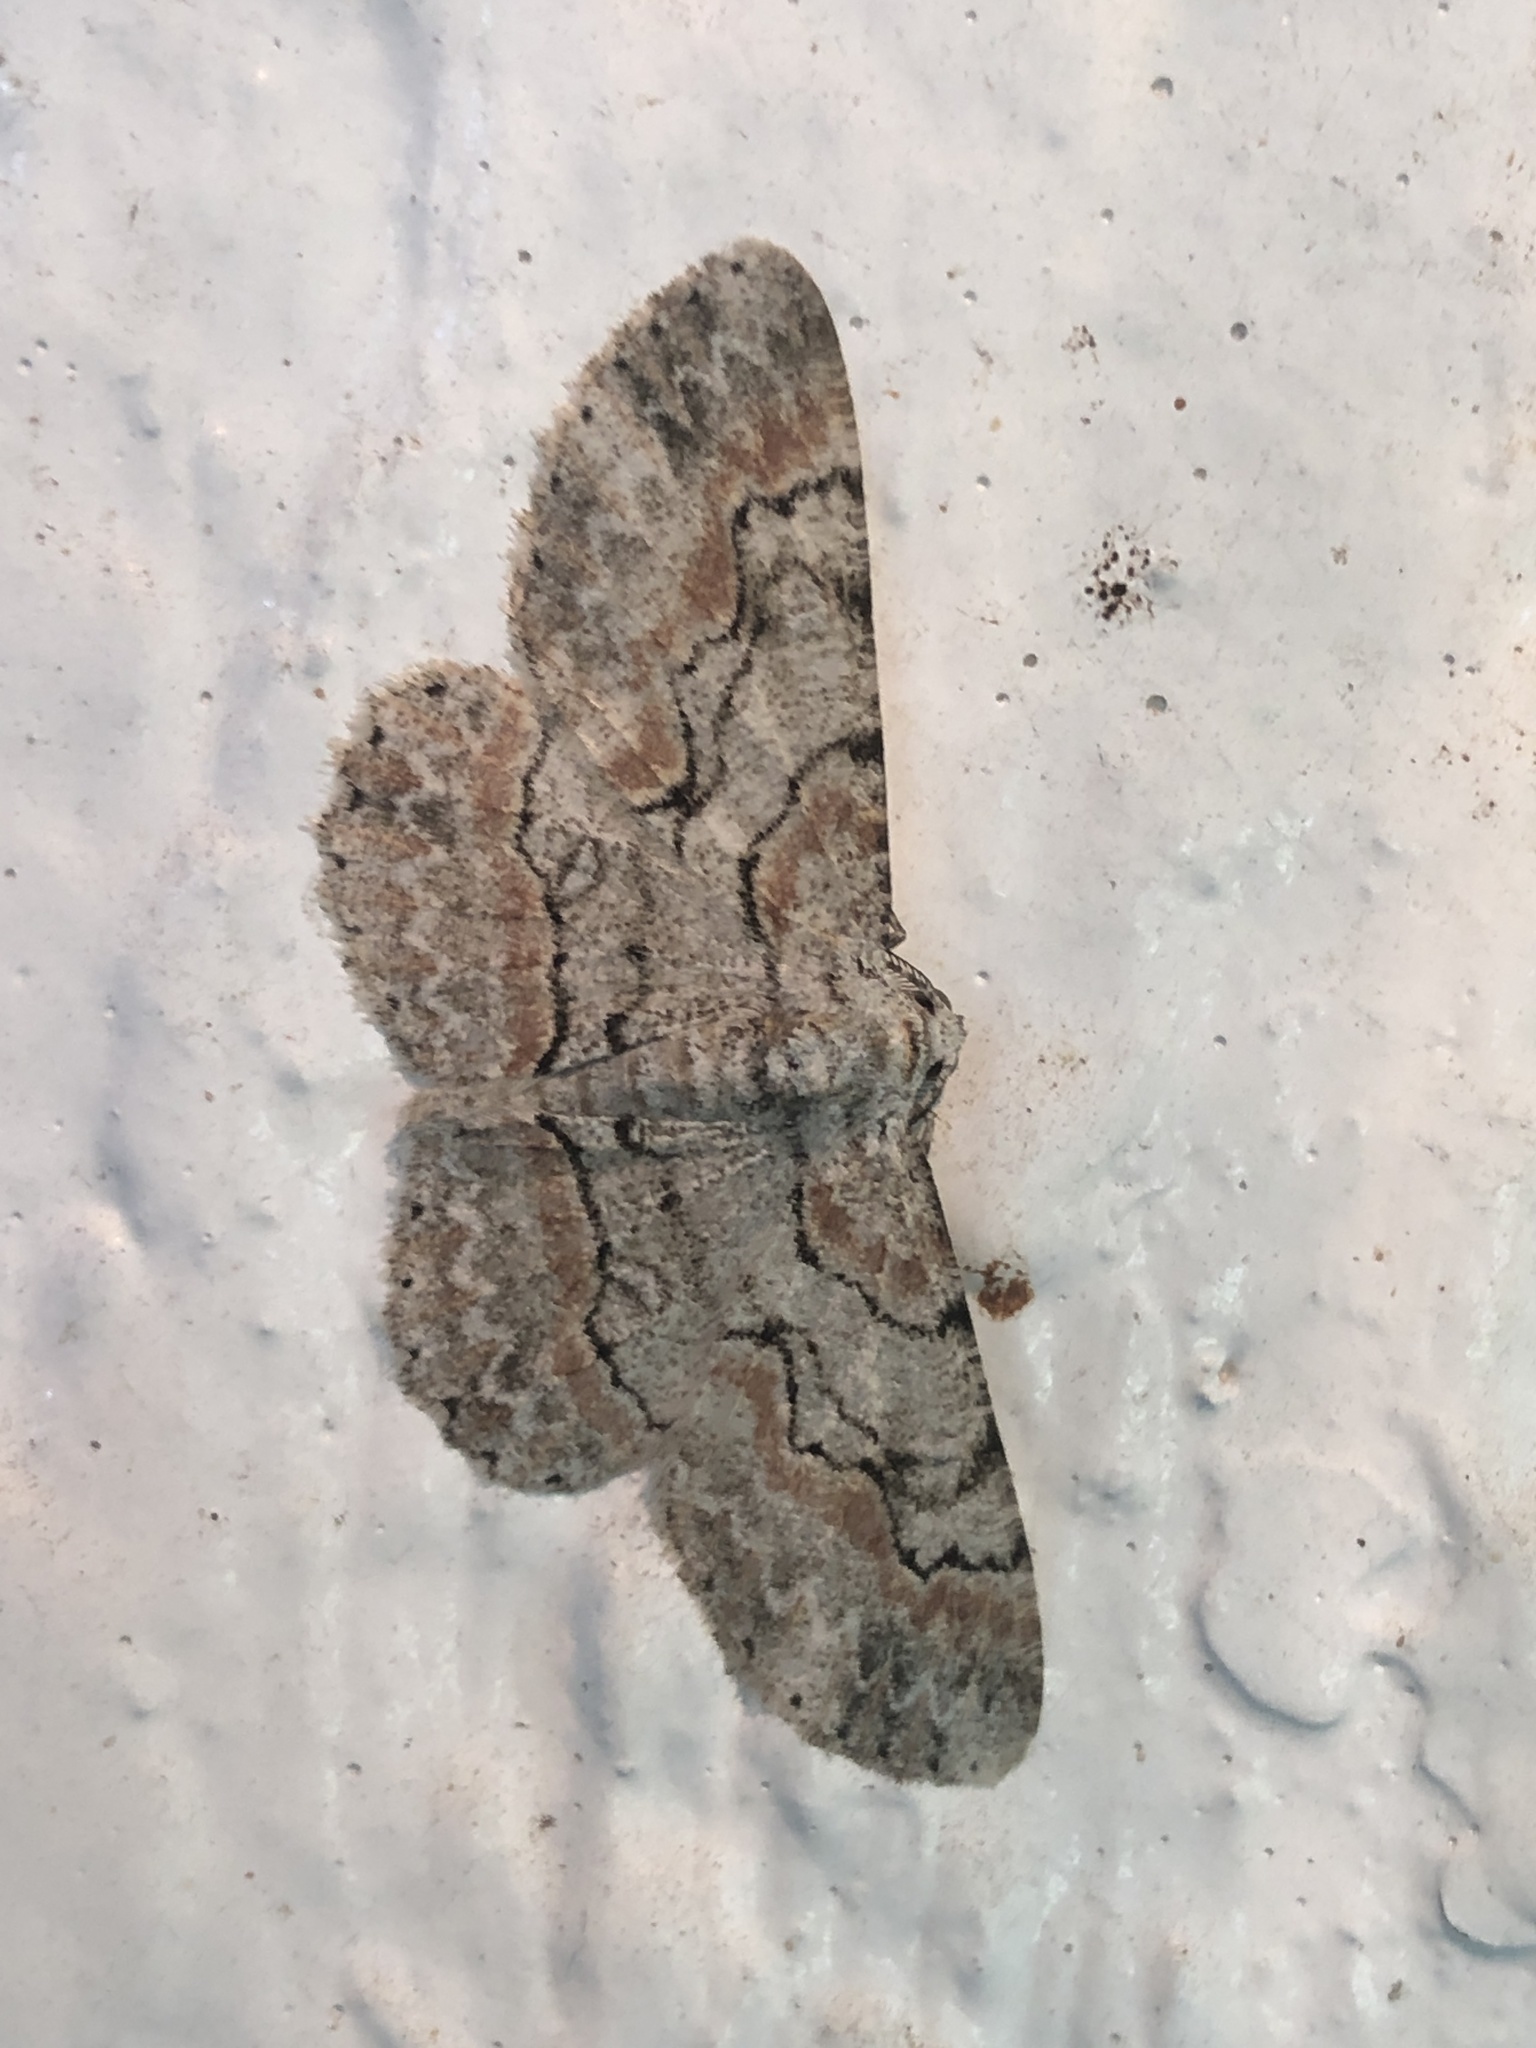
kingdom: Animalia
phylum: Arthropoda
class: Insecta
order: Lepidoptera
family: Geometridae
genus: Iridopsis
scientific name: Iridopsis defectaria
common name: Brown-shaded gray
